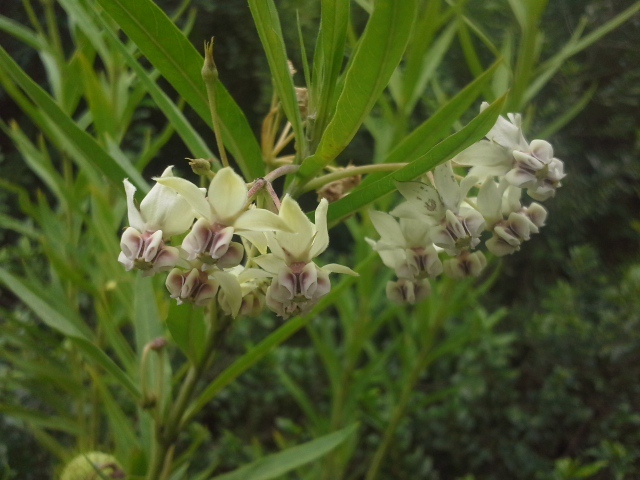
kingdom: Plantae
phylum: Tracheophyta
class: Magnoliopsida
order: Gentianales
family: Apocynaceae
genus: Gomphocarpus
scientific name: Gomphocarpus physocarpus
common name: Balloon cotton bush
